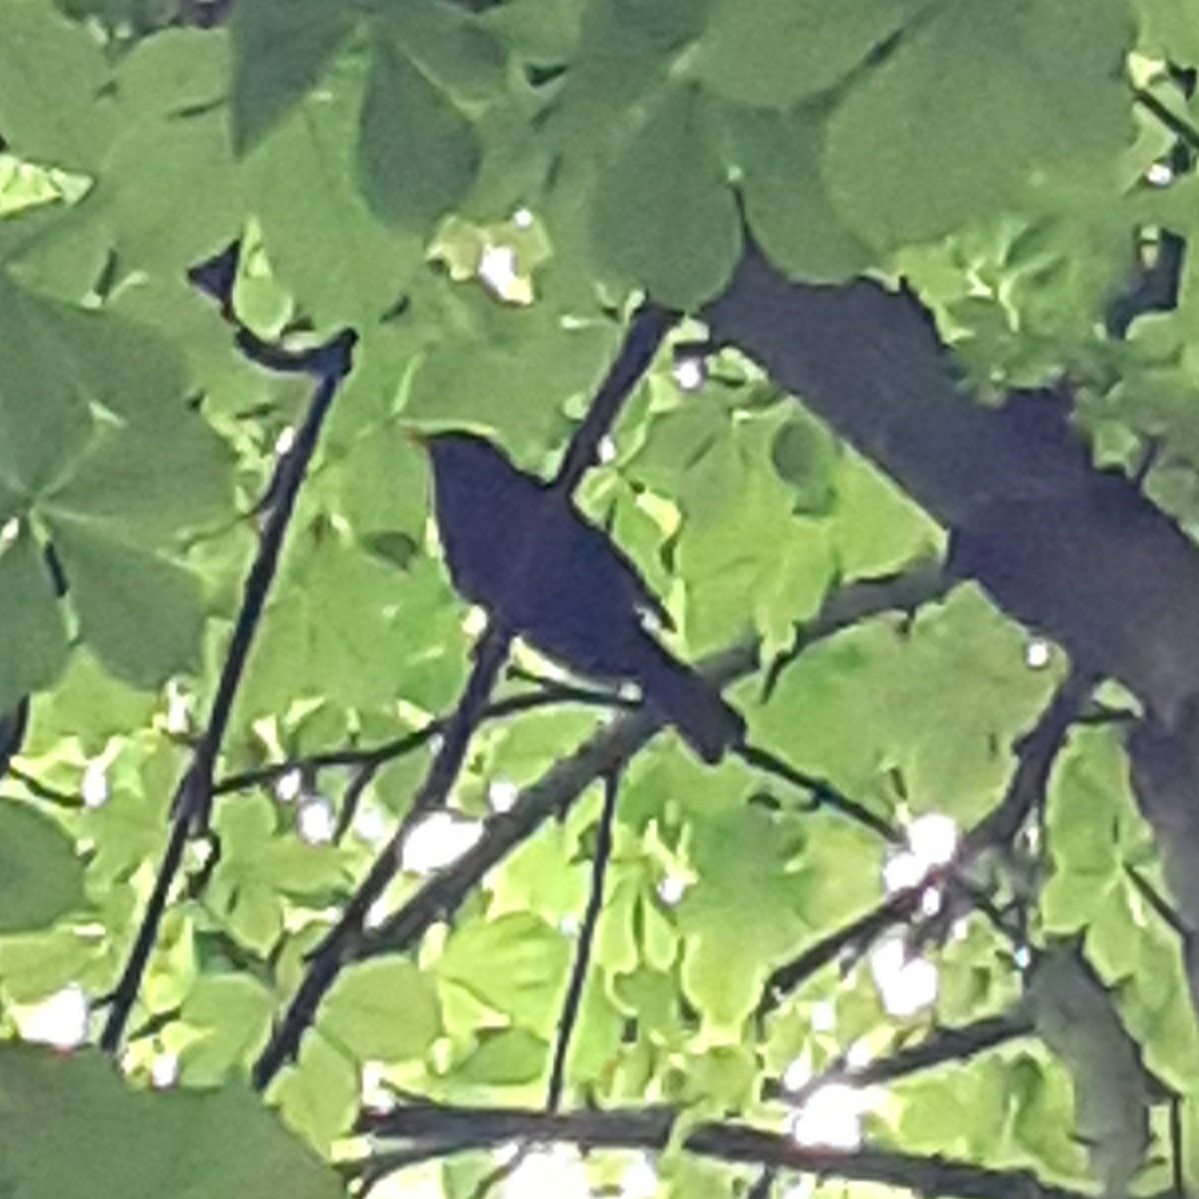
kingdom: Animalia
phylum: Chordata
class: Aves
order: Passeriformes
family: Turdidae
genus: Turdus
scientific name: Turdus merula
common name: Common blackbird
